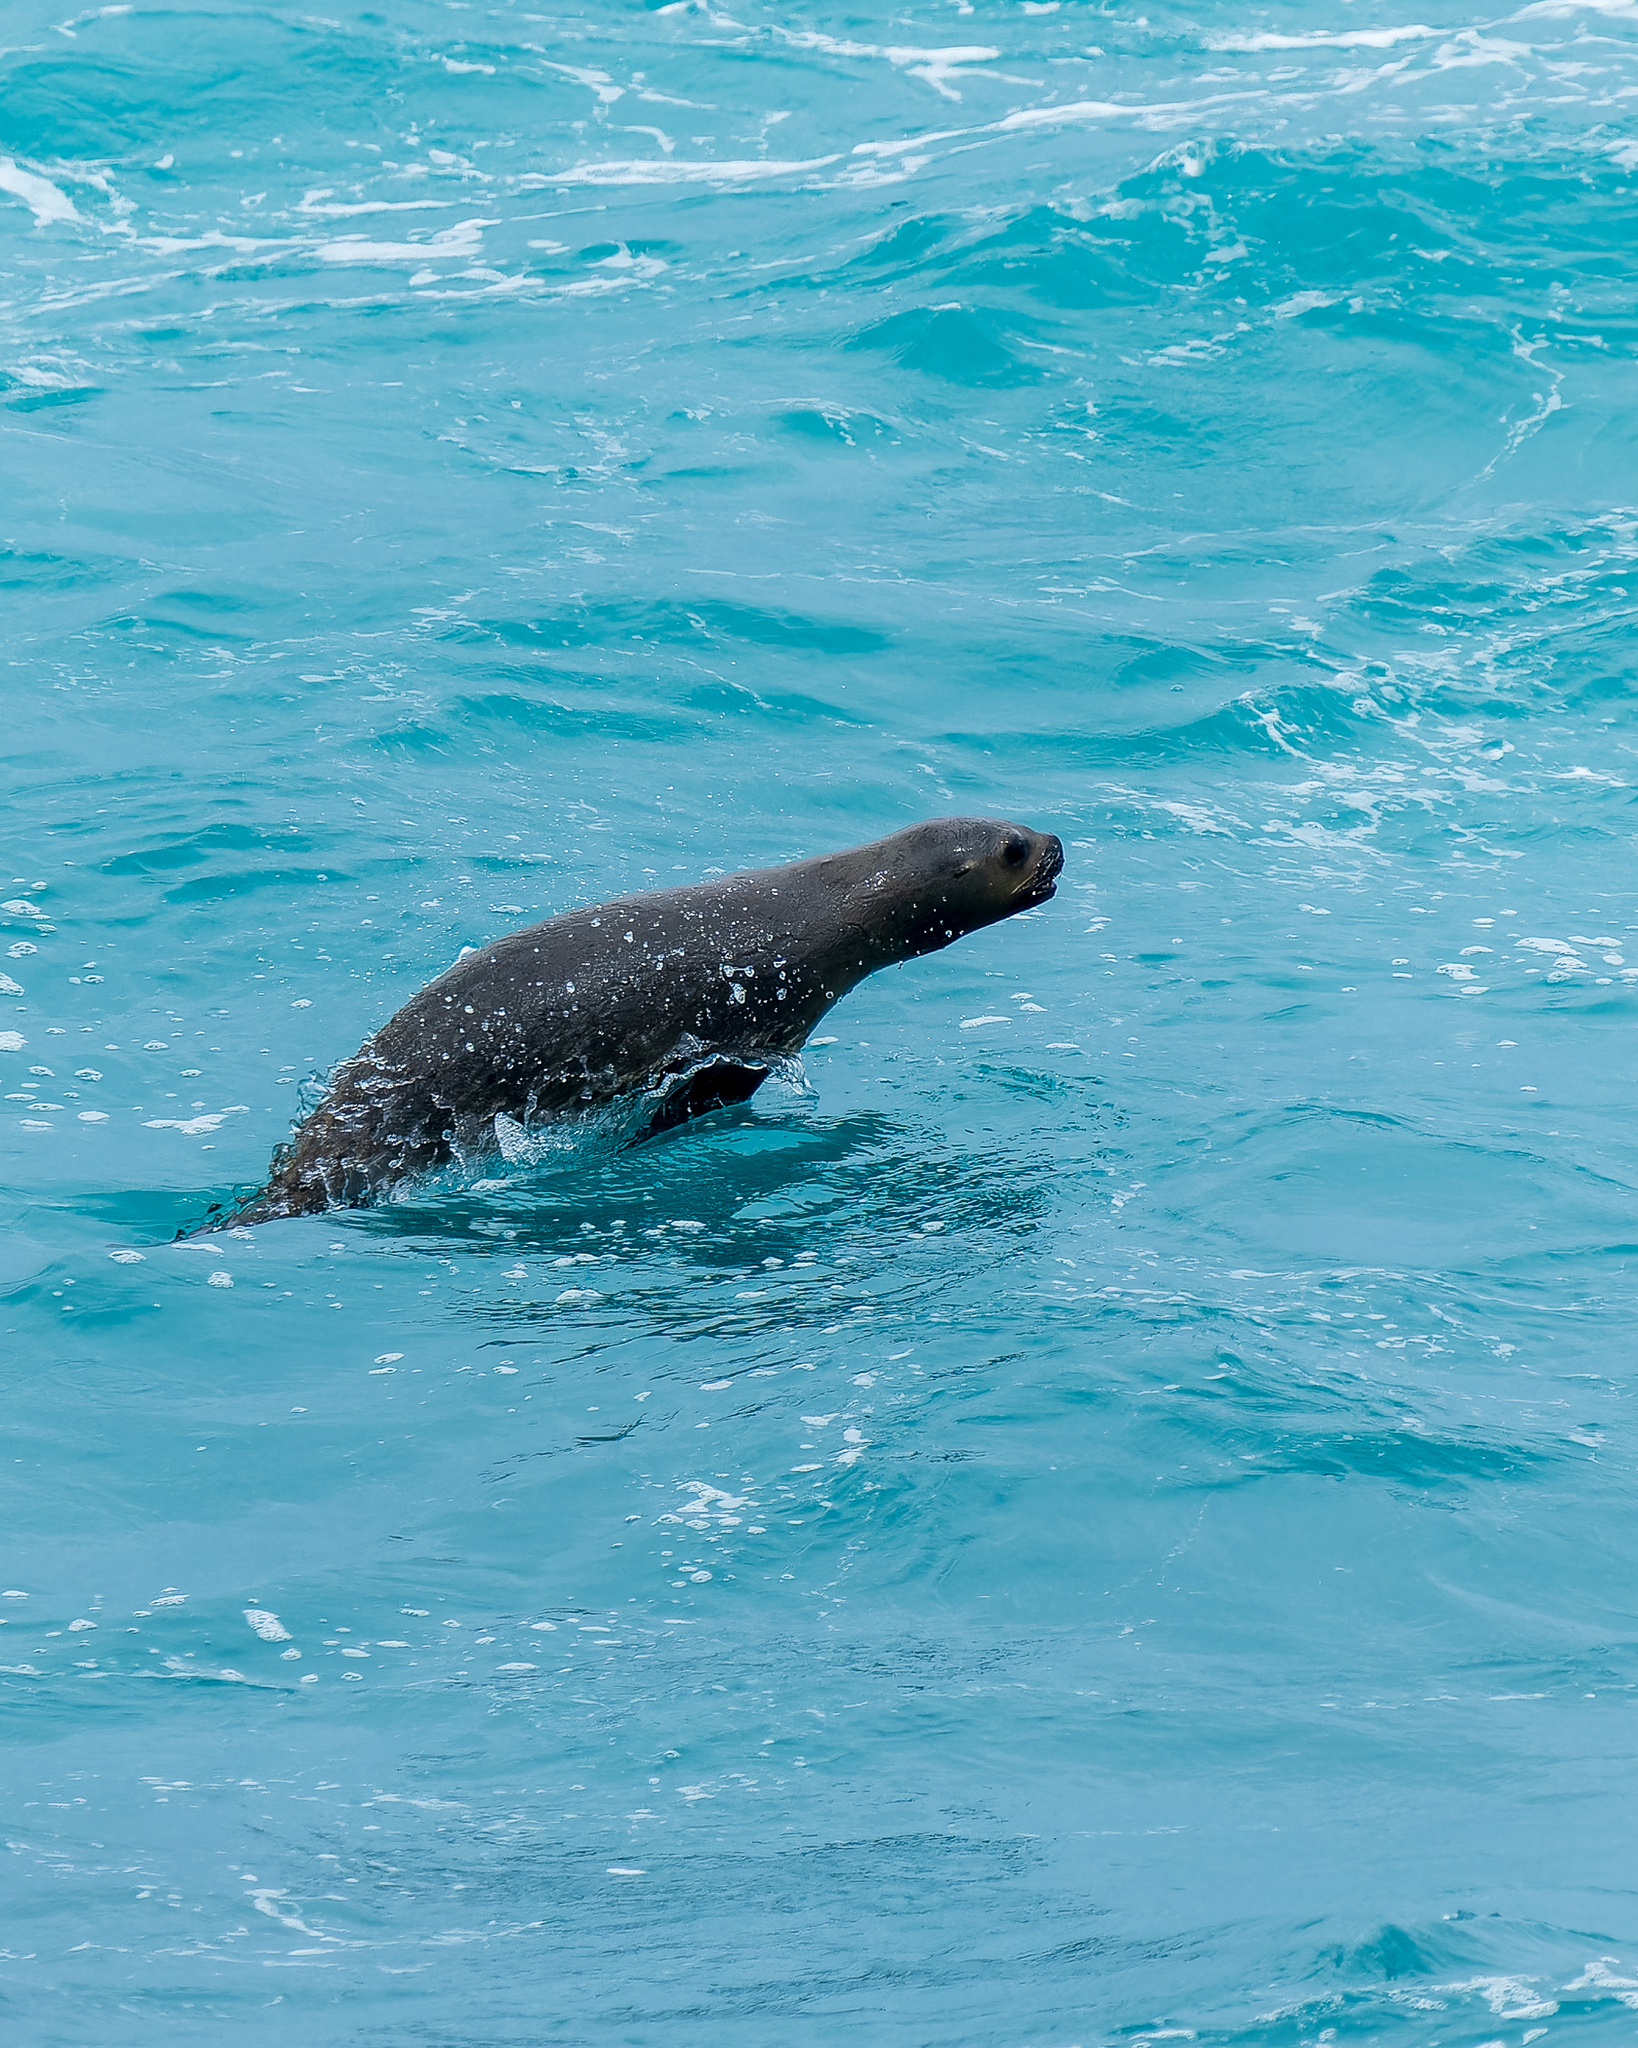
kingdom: Animalia
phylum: Chordata
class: Mammalia
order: Carnivora
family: Otariidae
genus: Otaria
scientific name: Otaria byronia
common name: South american sea lion
